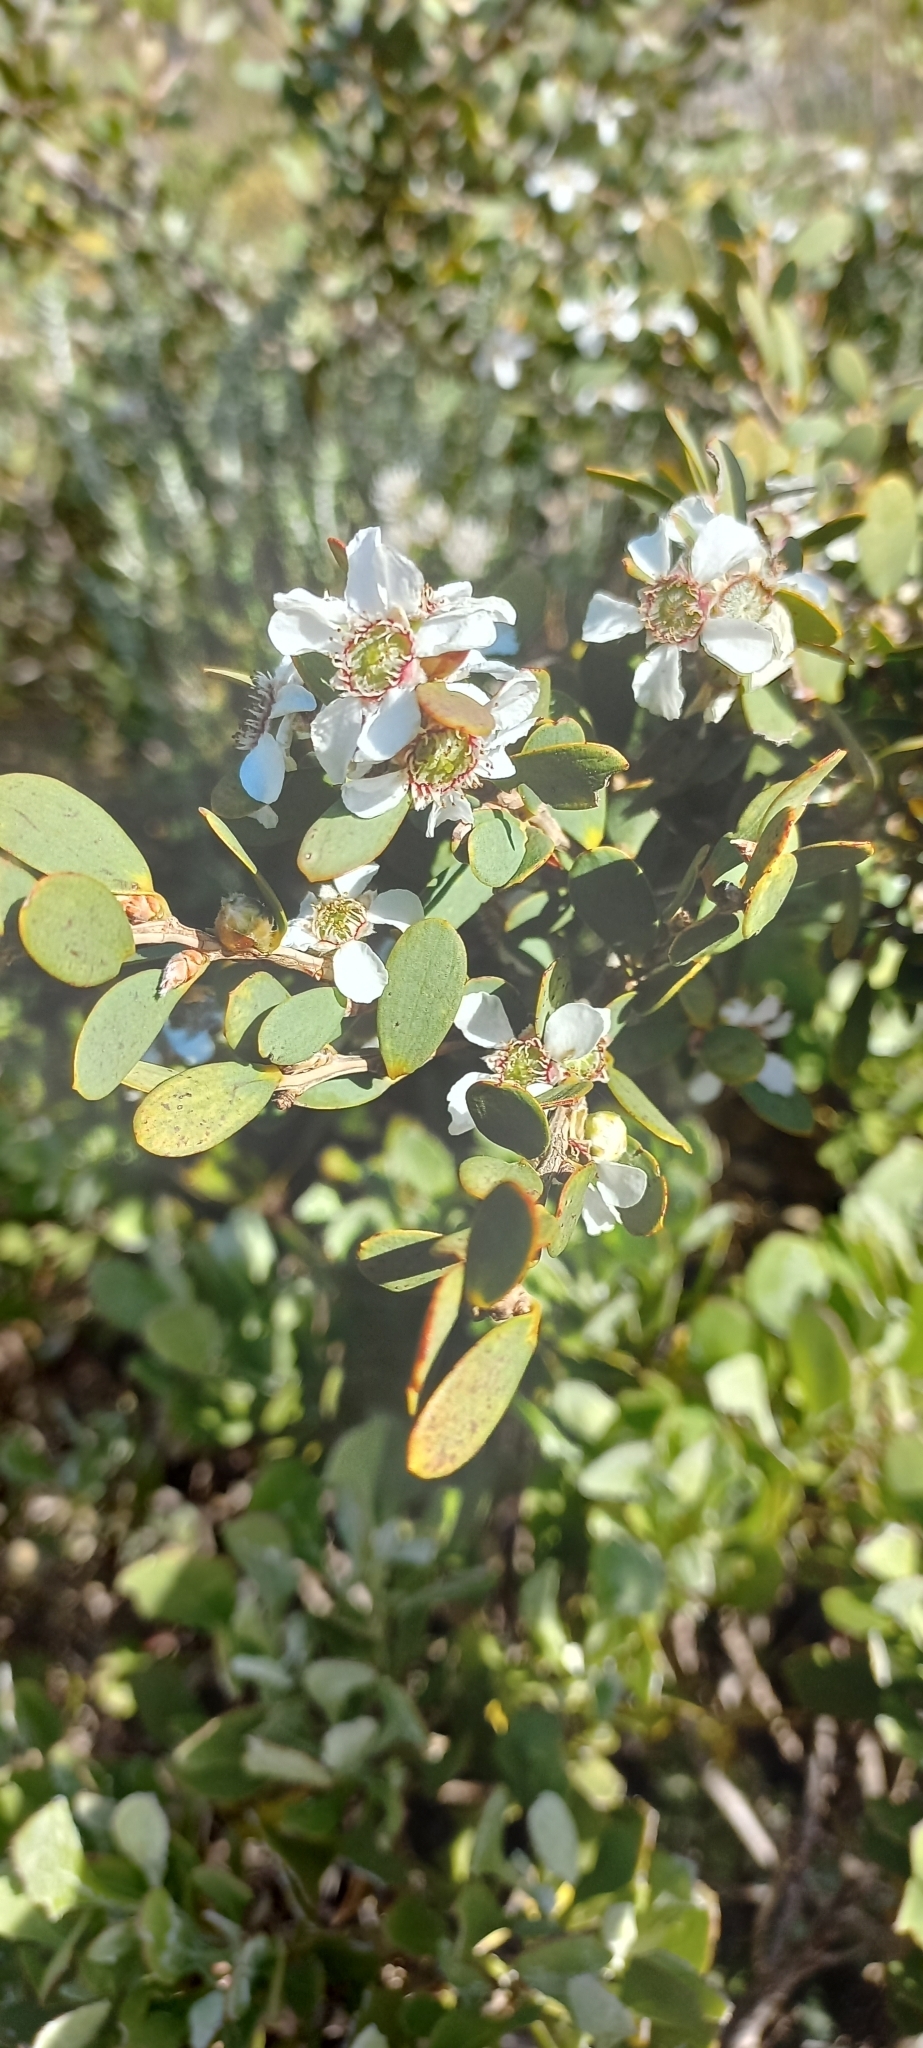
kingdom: Plantae
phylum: Tracheophyta
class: Magnoliopsida
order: Myrtales
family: Myrtaceae
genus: Leptospermum
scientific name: Leptospermum laevigatum
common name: Australian teatree
